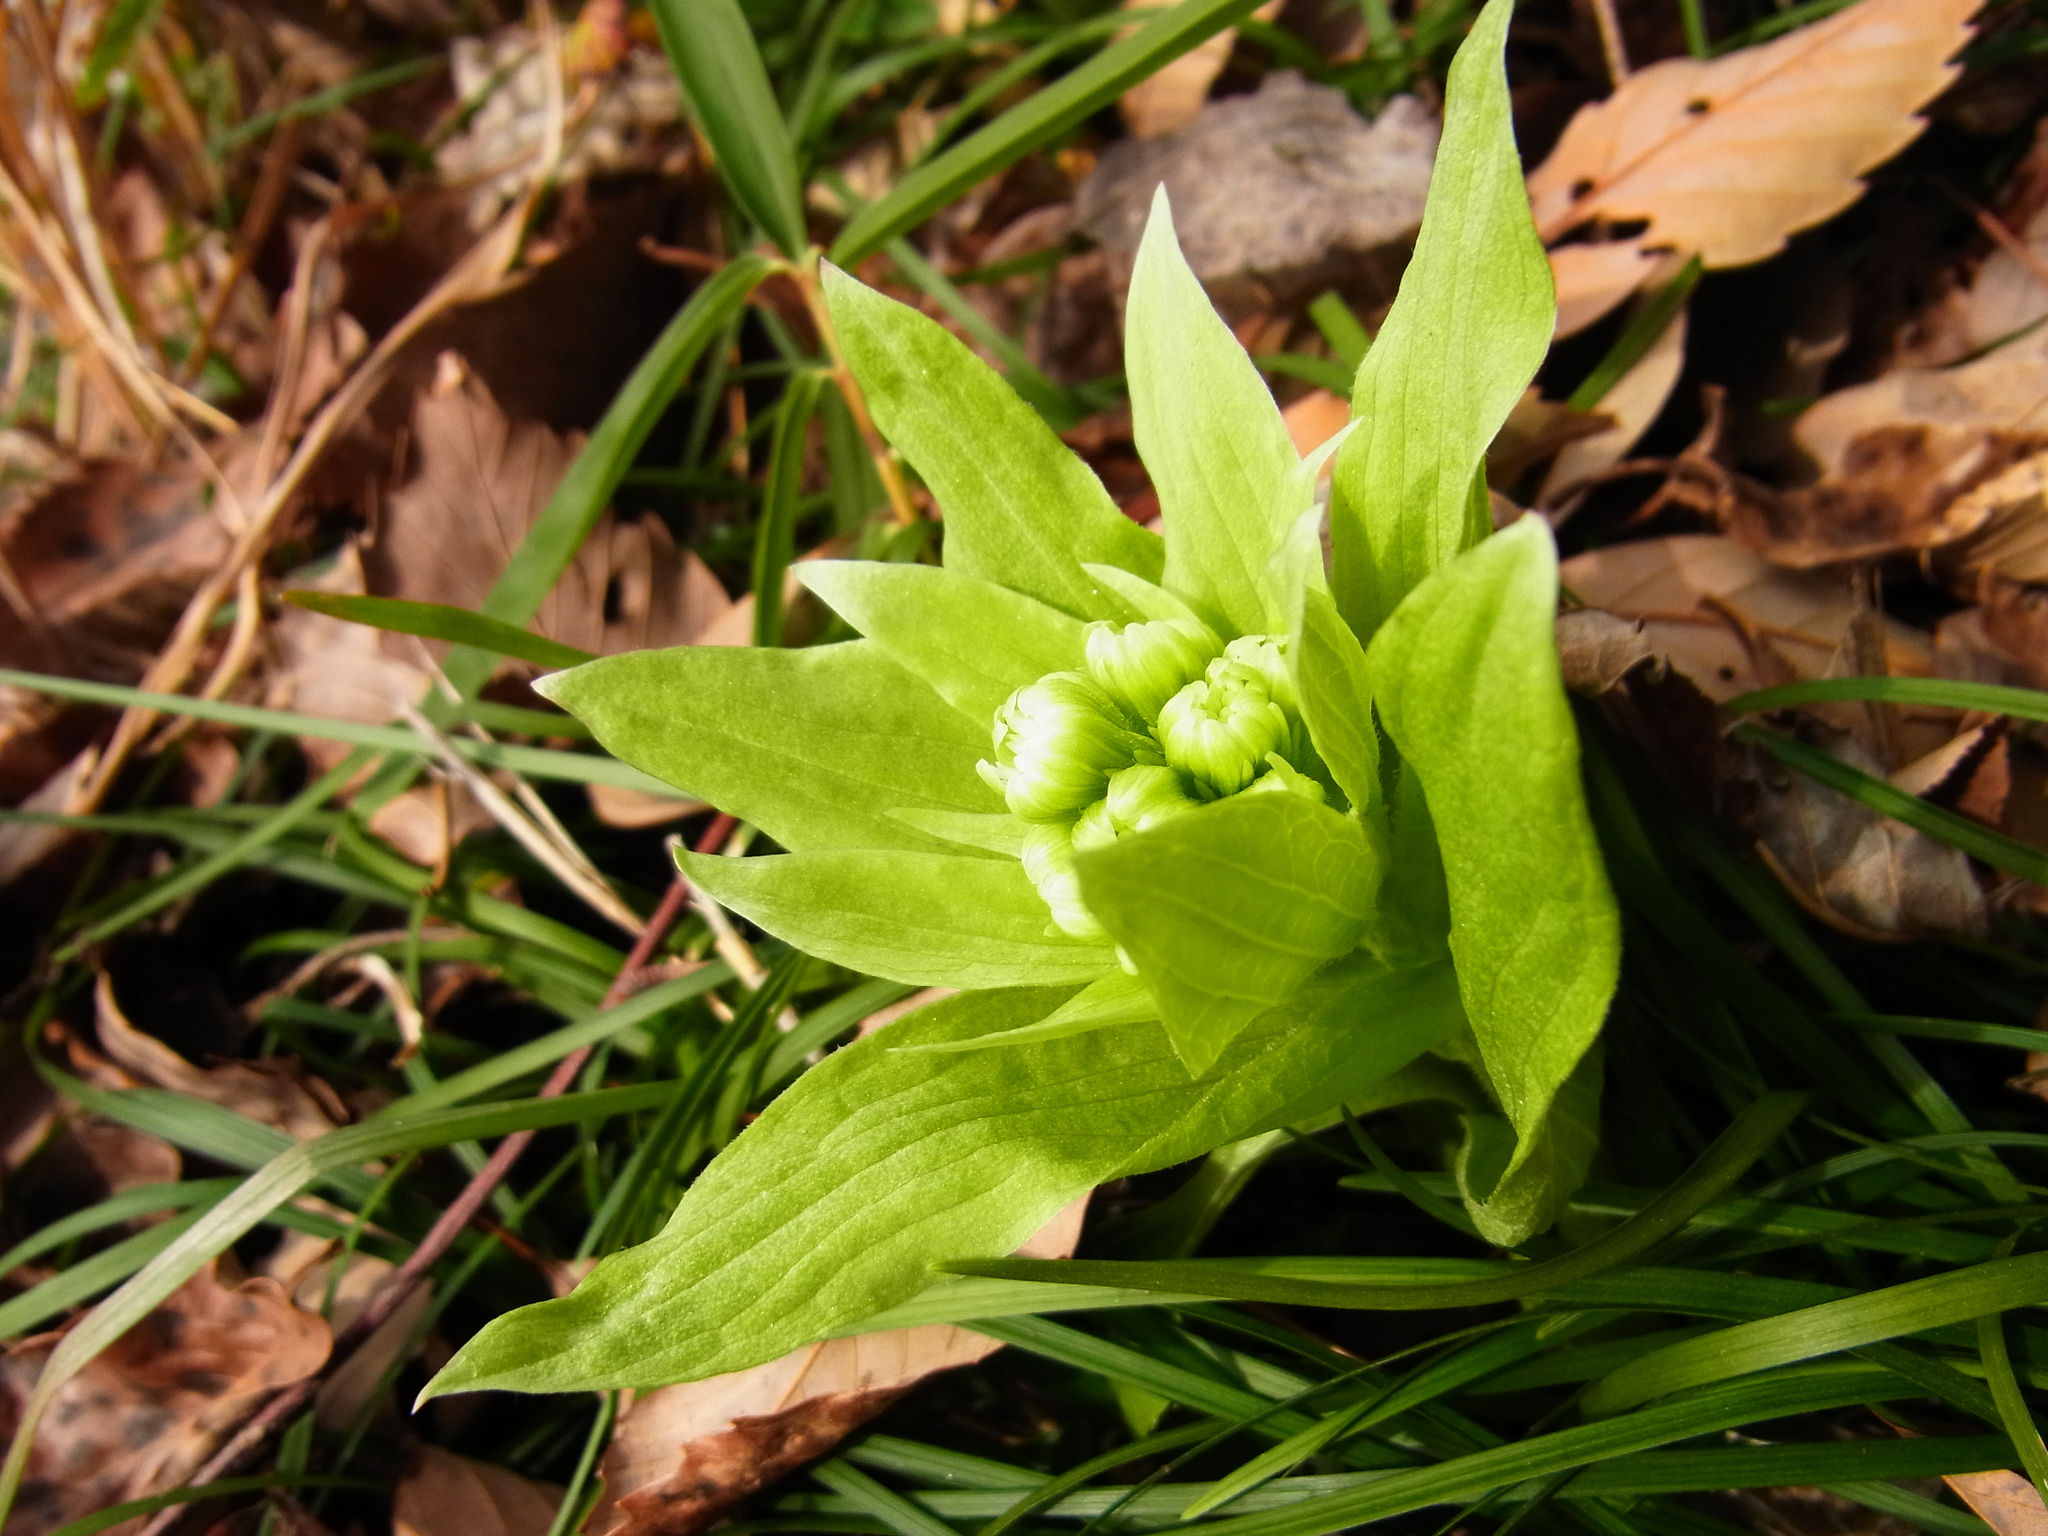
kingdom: Plantae
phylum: Tracheophyta
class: Magnoliopsida
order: Asterales
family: Asteraceae
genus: Petasites
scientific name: Petasites japonicus
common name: Giant butterbur
